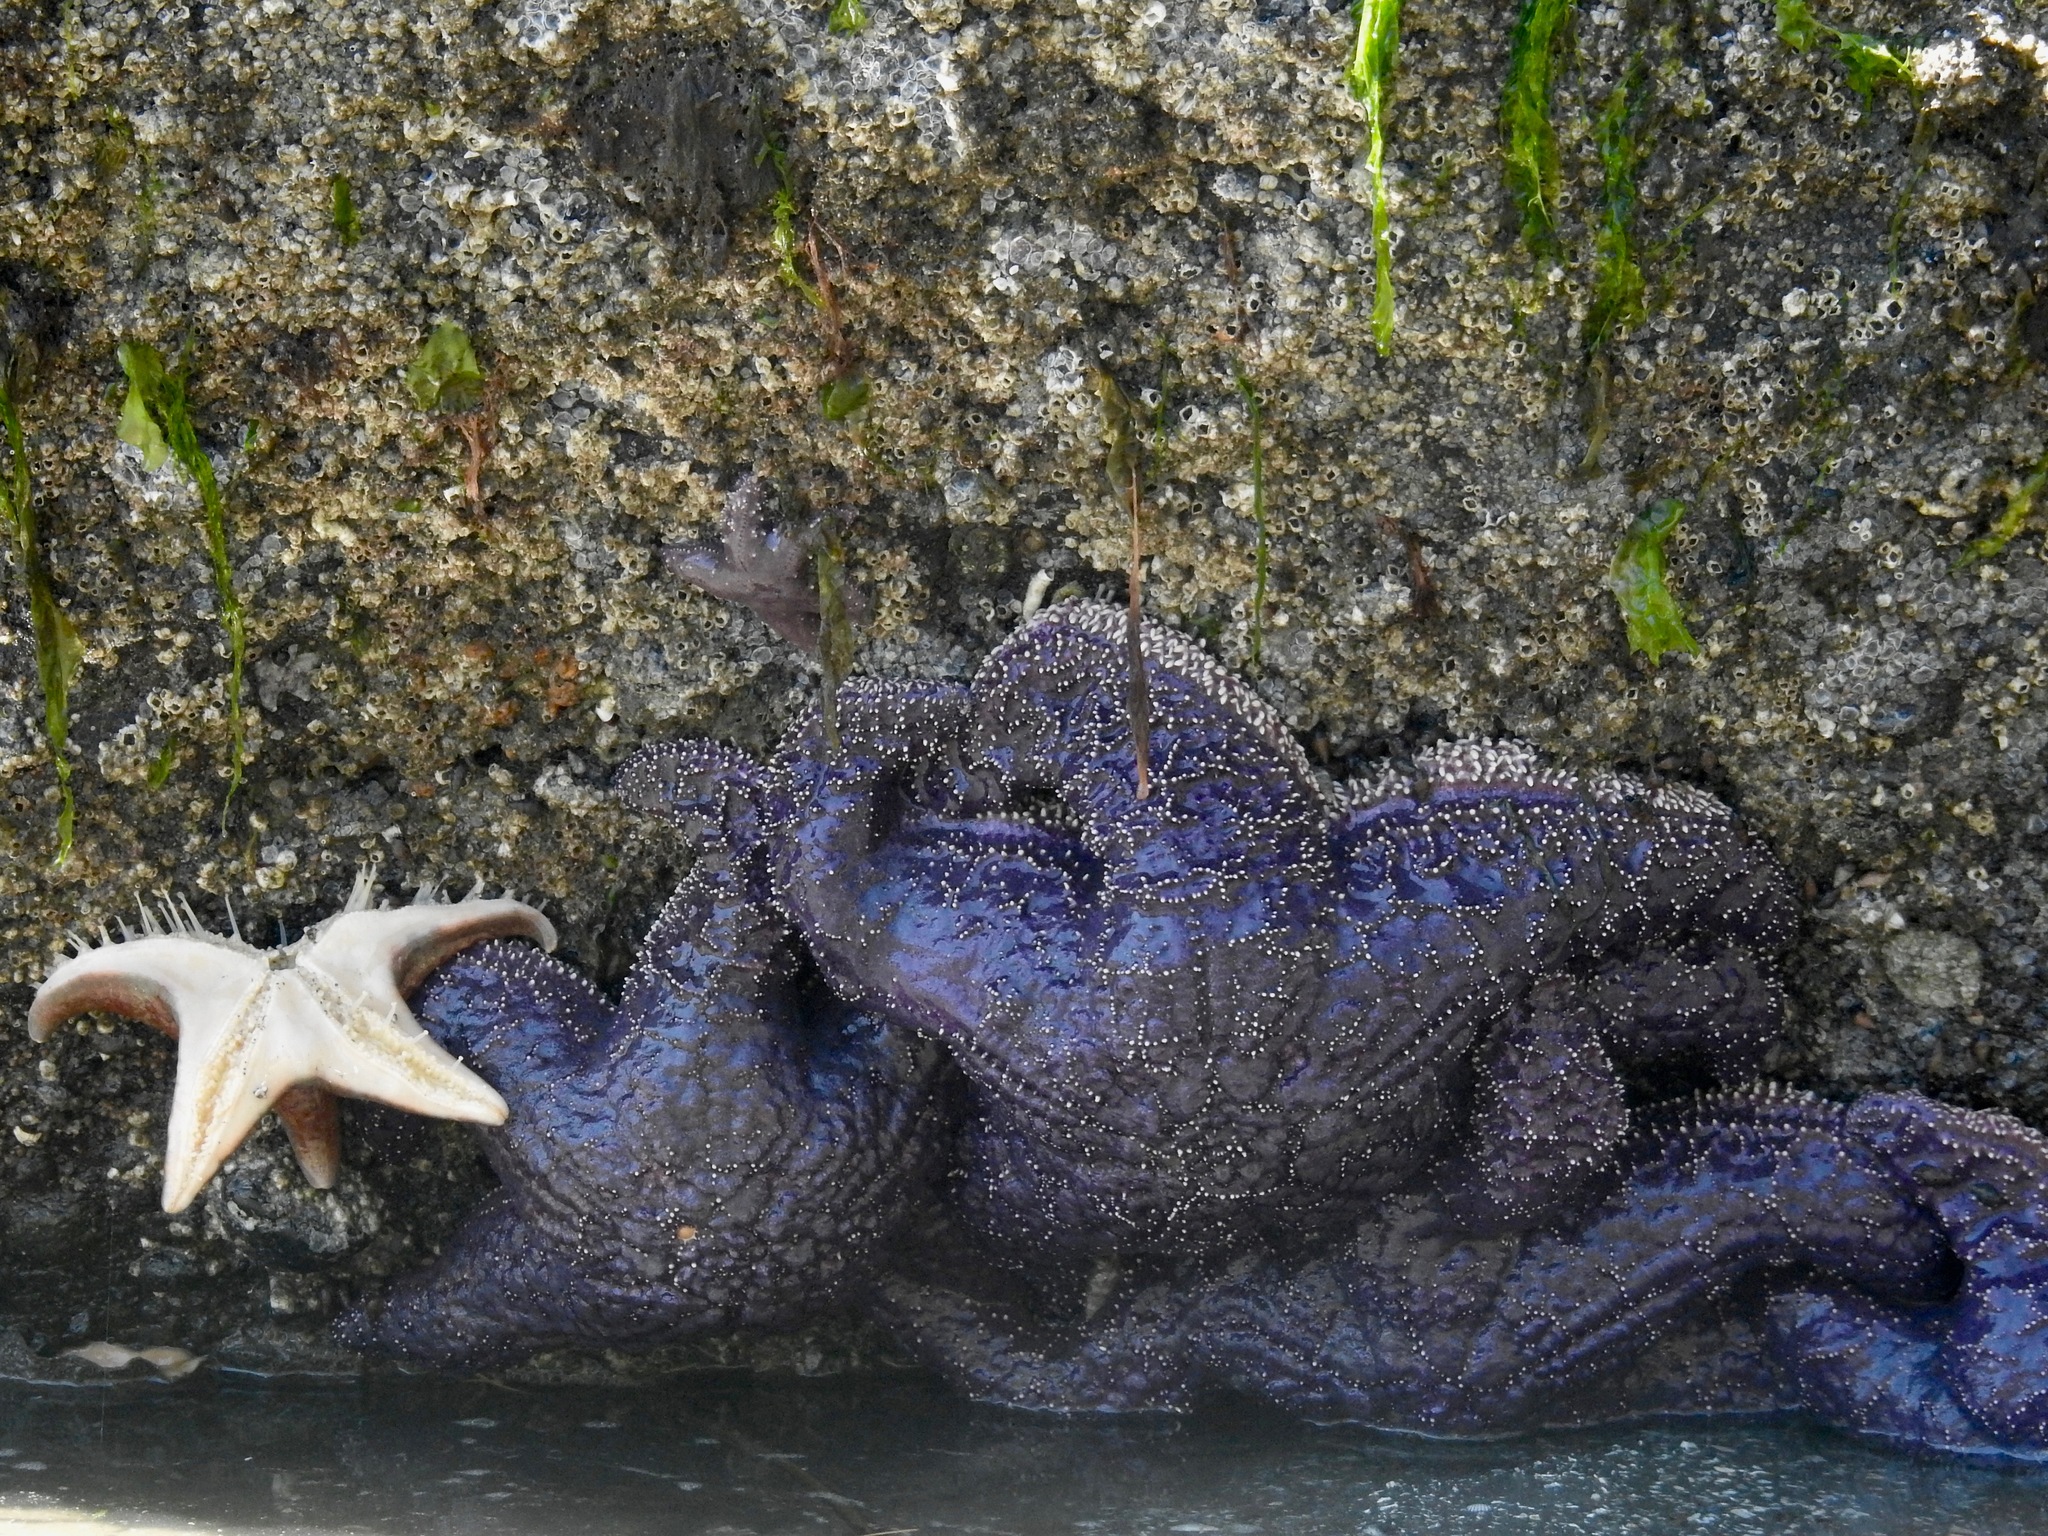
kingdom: Animalia
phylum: Echinodermata
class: Asteroidea
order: Forcipulatida
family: Asteriidae
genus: Pisaster
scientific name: Pisaster ochraceus
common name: Ochre stars
